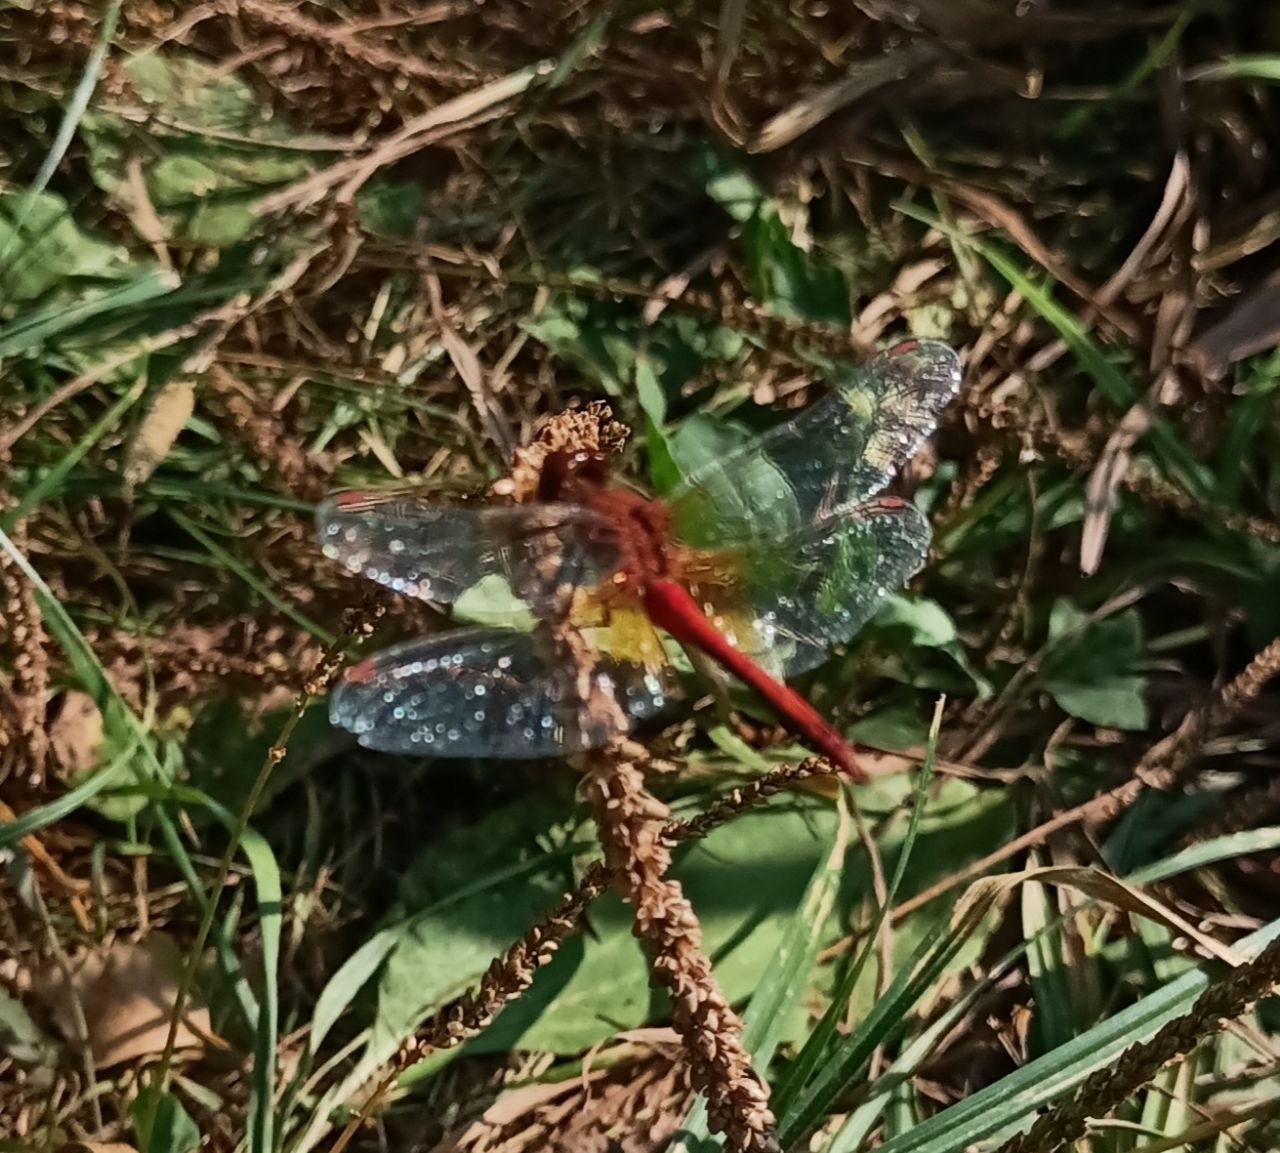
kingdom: Animalia
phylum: Arthropoda
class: Insecta
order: Odonata
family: Libellulidae
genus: Sympetrum
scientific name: Sympetrum flaveolum
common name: Yellow-winged darter
